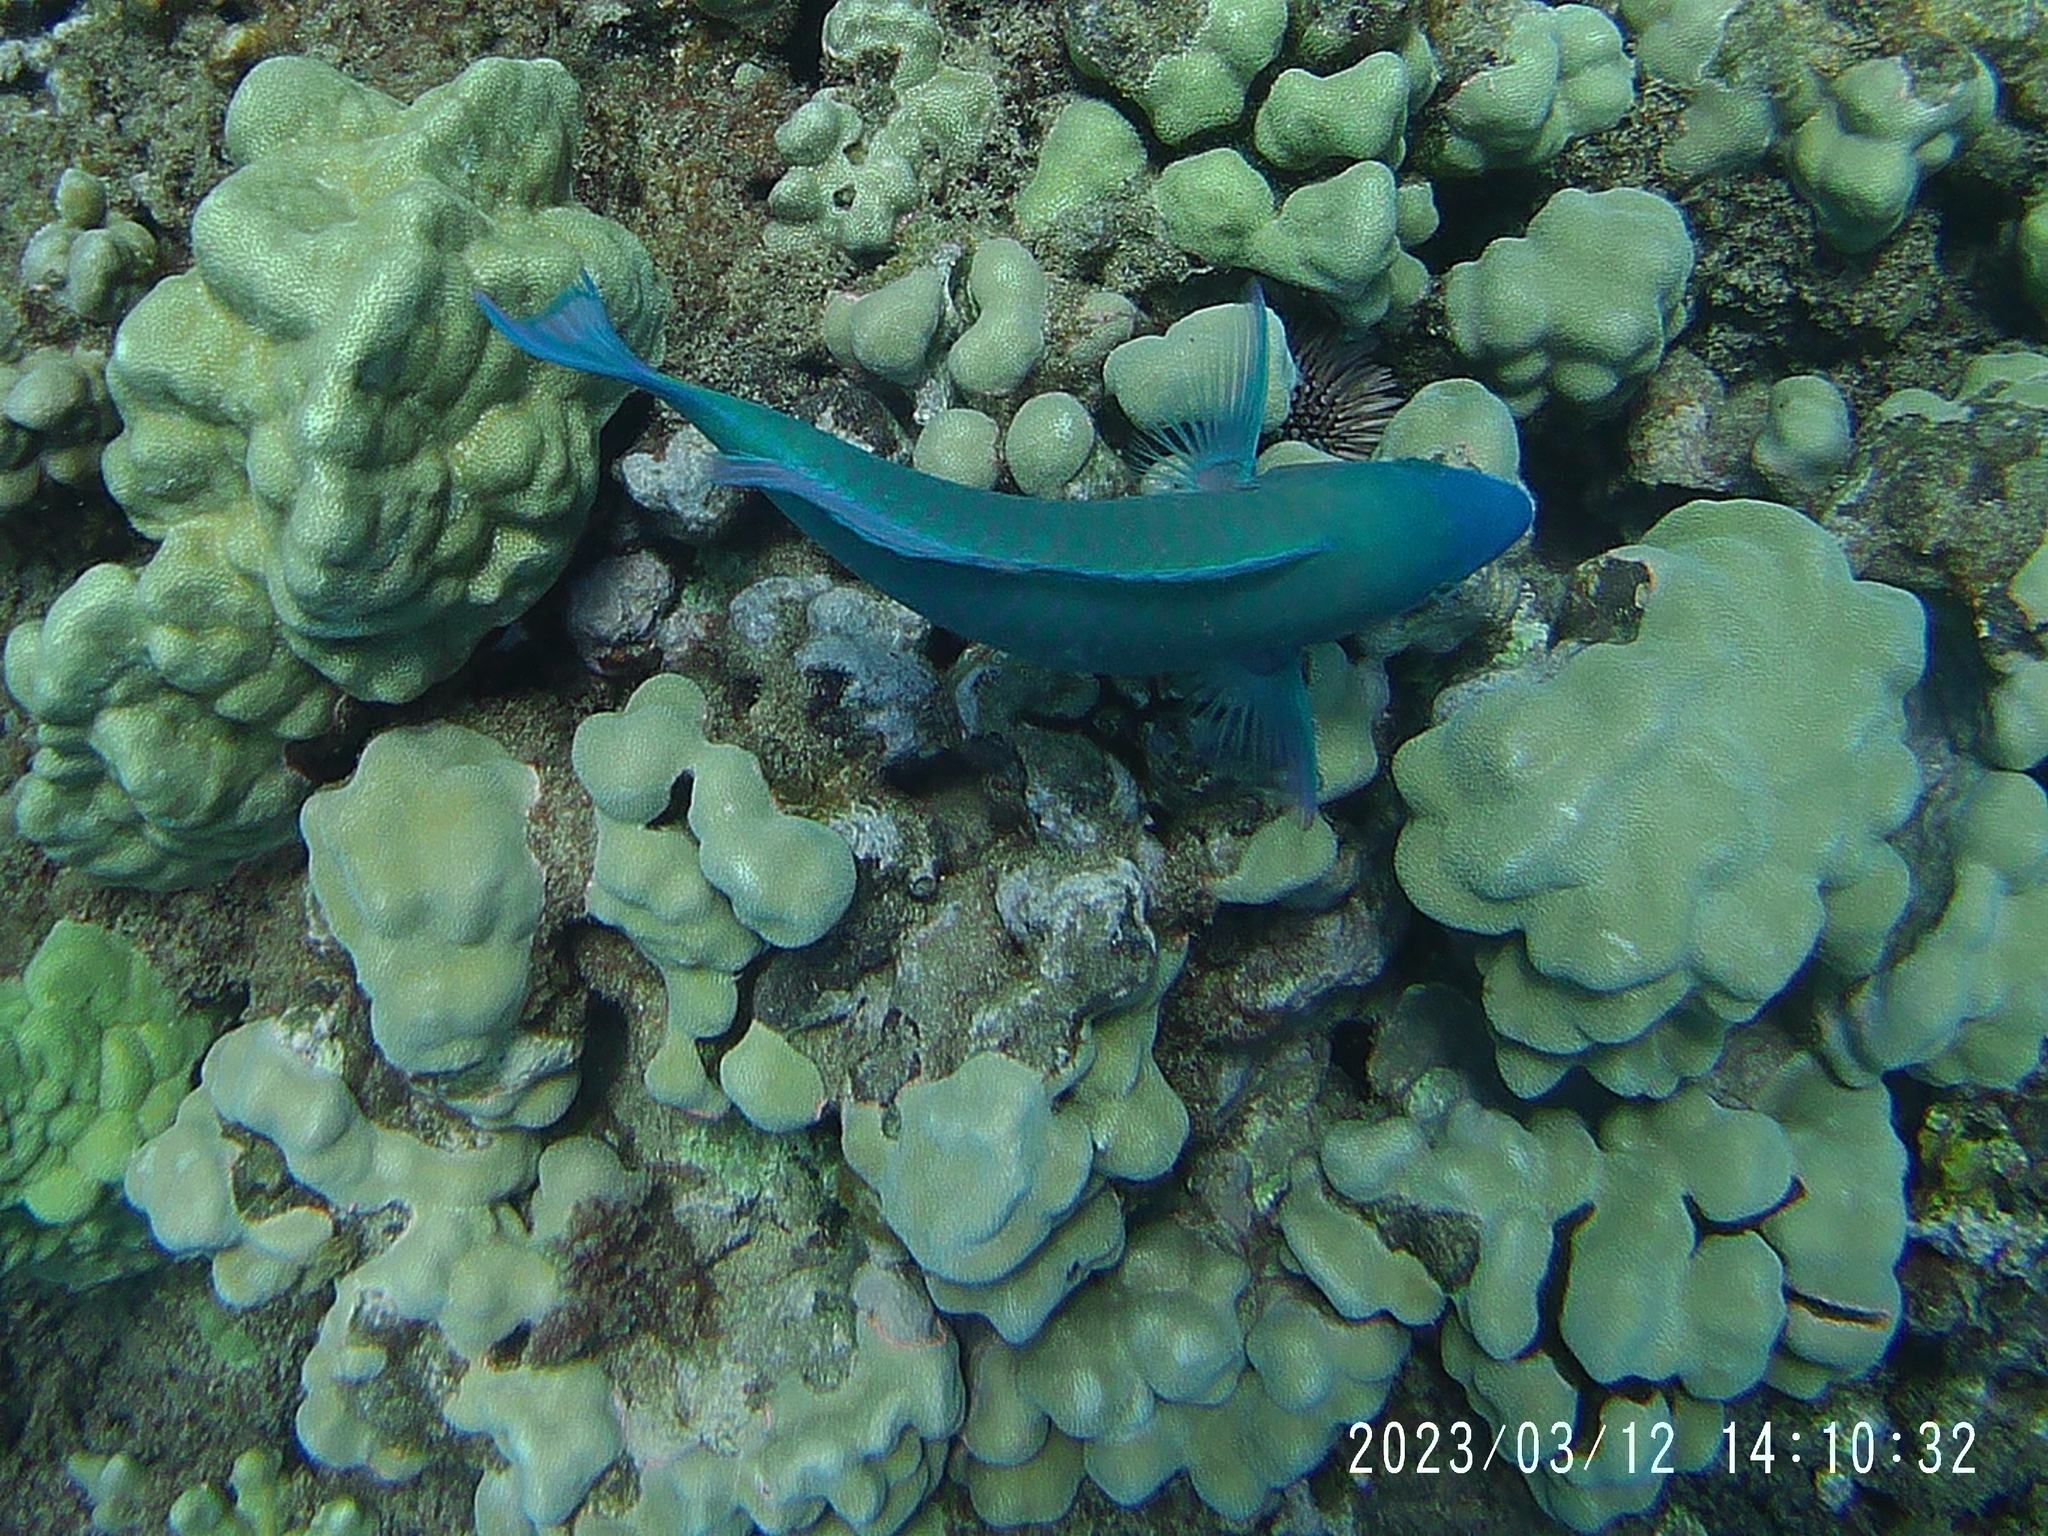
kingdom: Animalia
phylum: Chordata
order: Perciformes
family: Scaridae
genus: Scarus
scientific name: Scarus psittacus
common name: Palenose parrotfish
